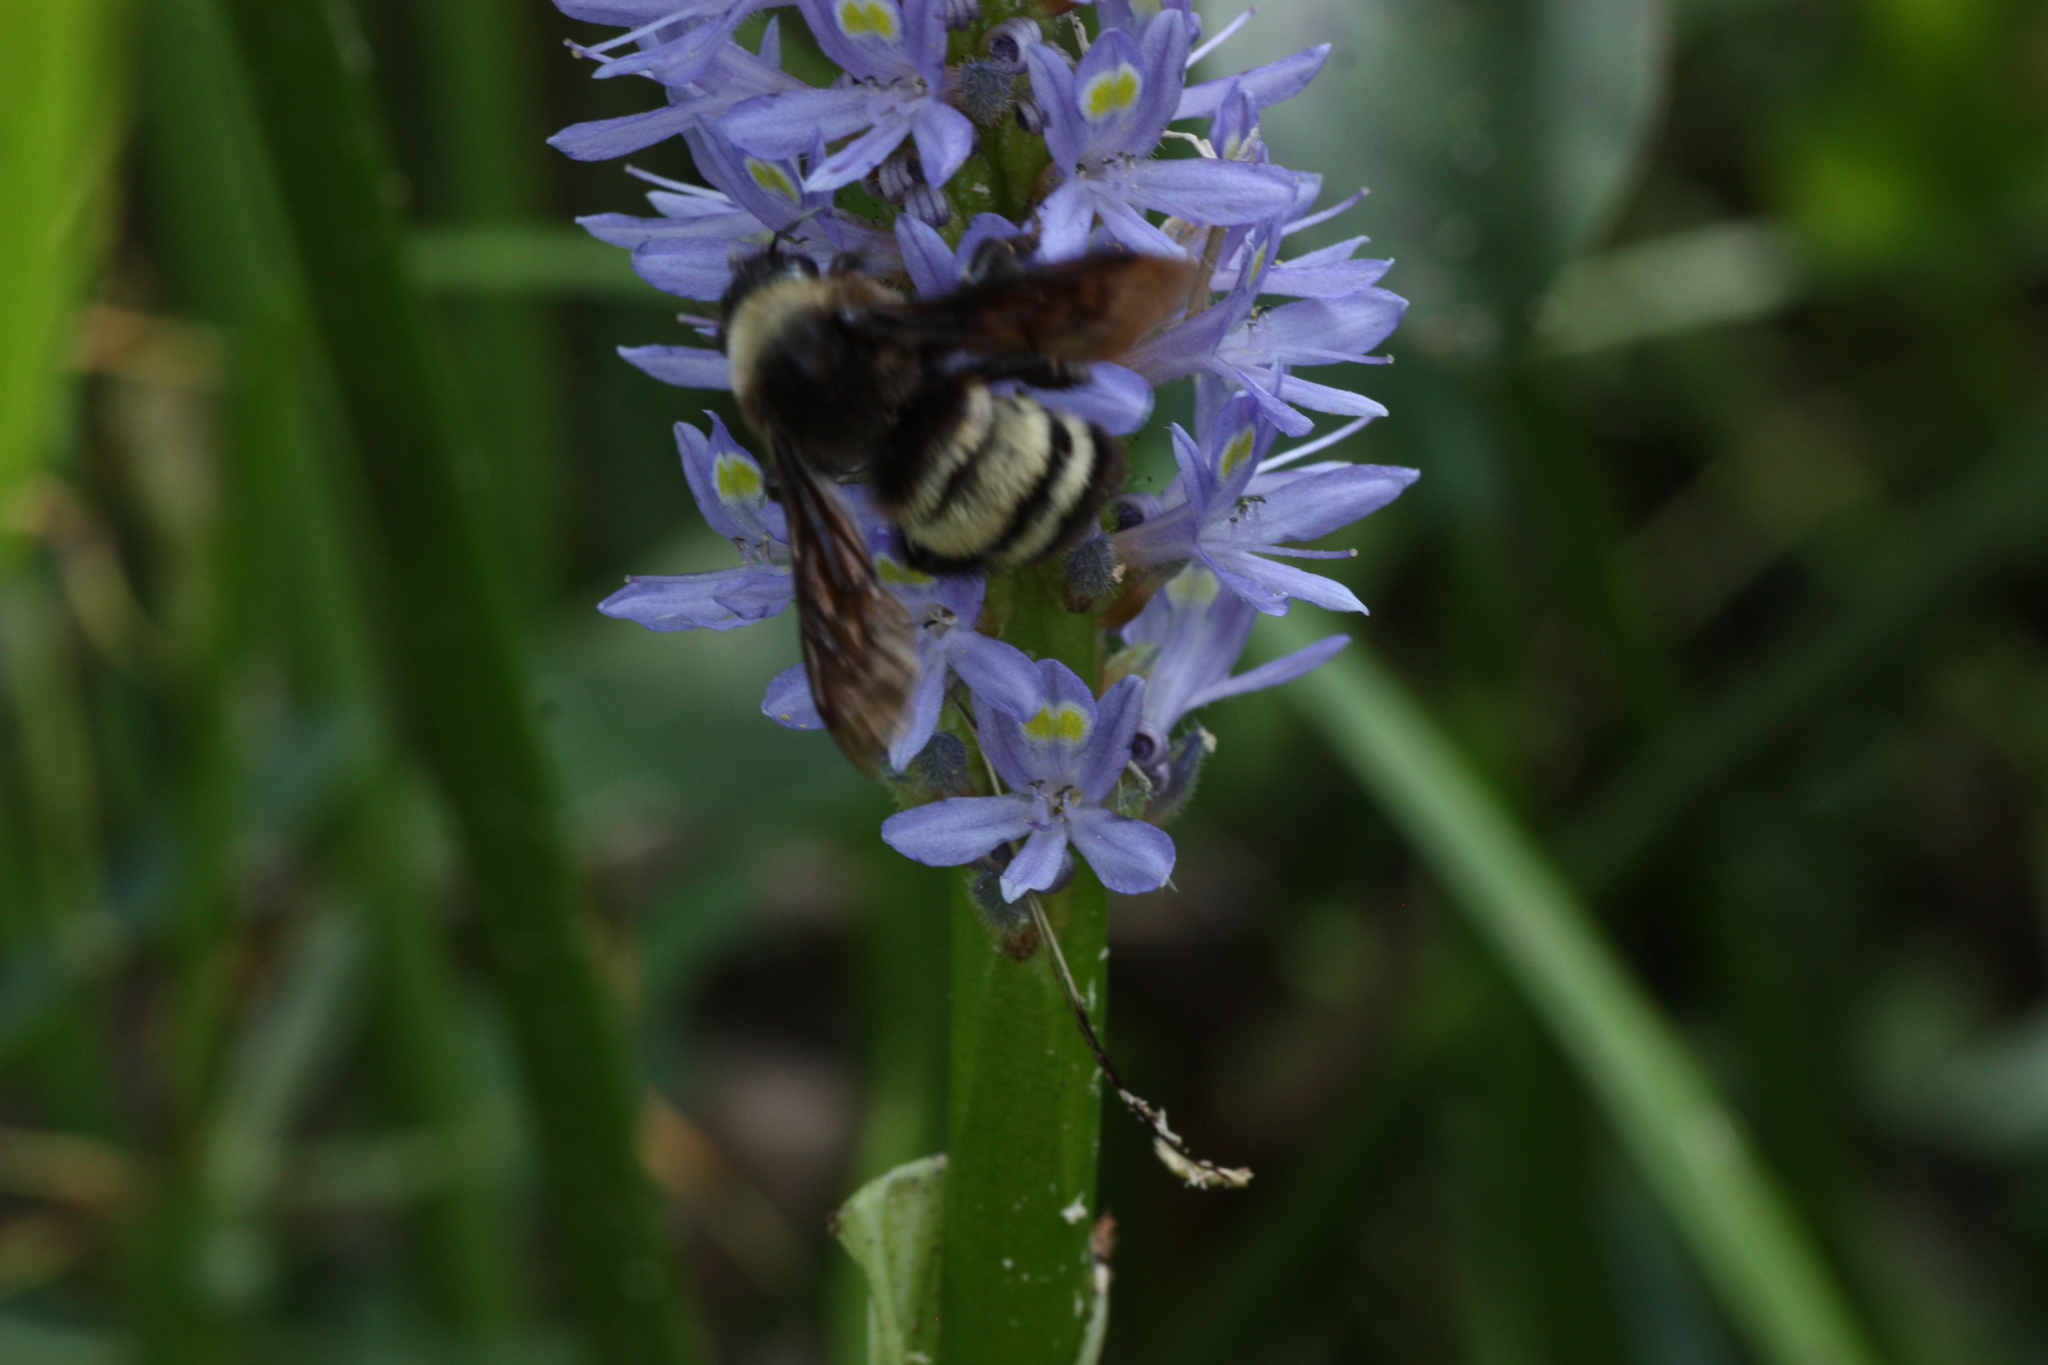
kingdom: Animalia
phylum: Arthropoda
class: Insecta
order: Hymenoptera
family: Apidae
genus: Bombus
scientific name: Bombus pensylvanicus
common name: Bumble bee
